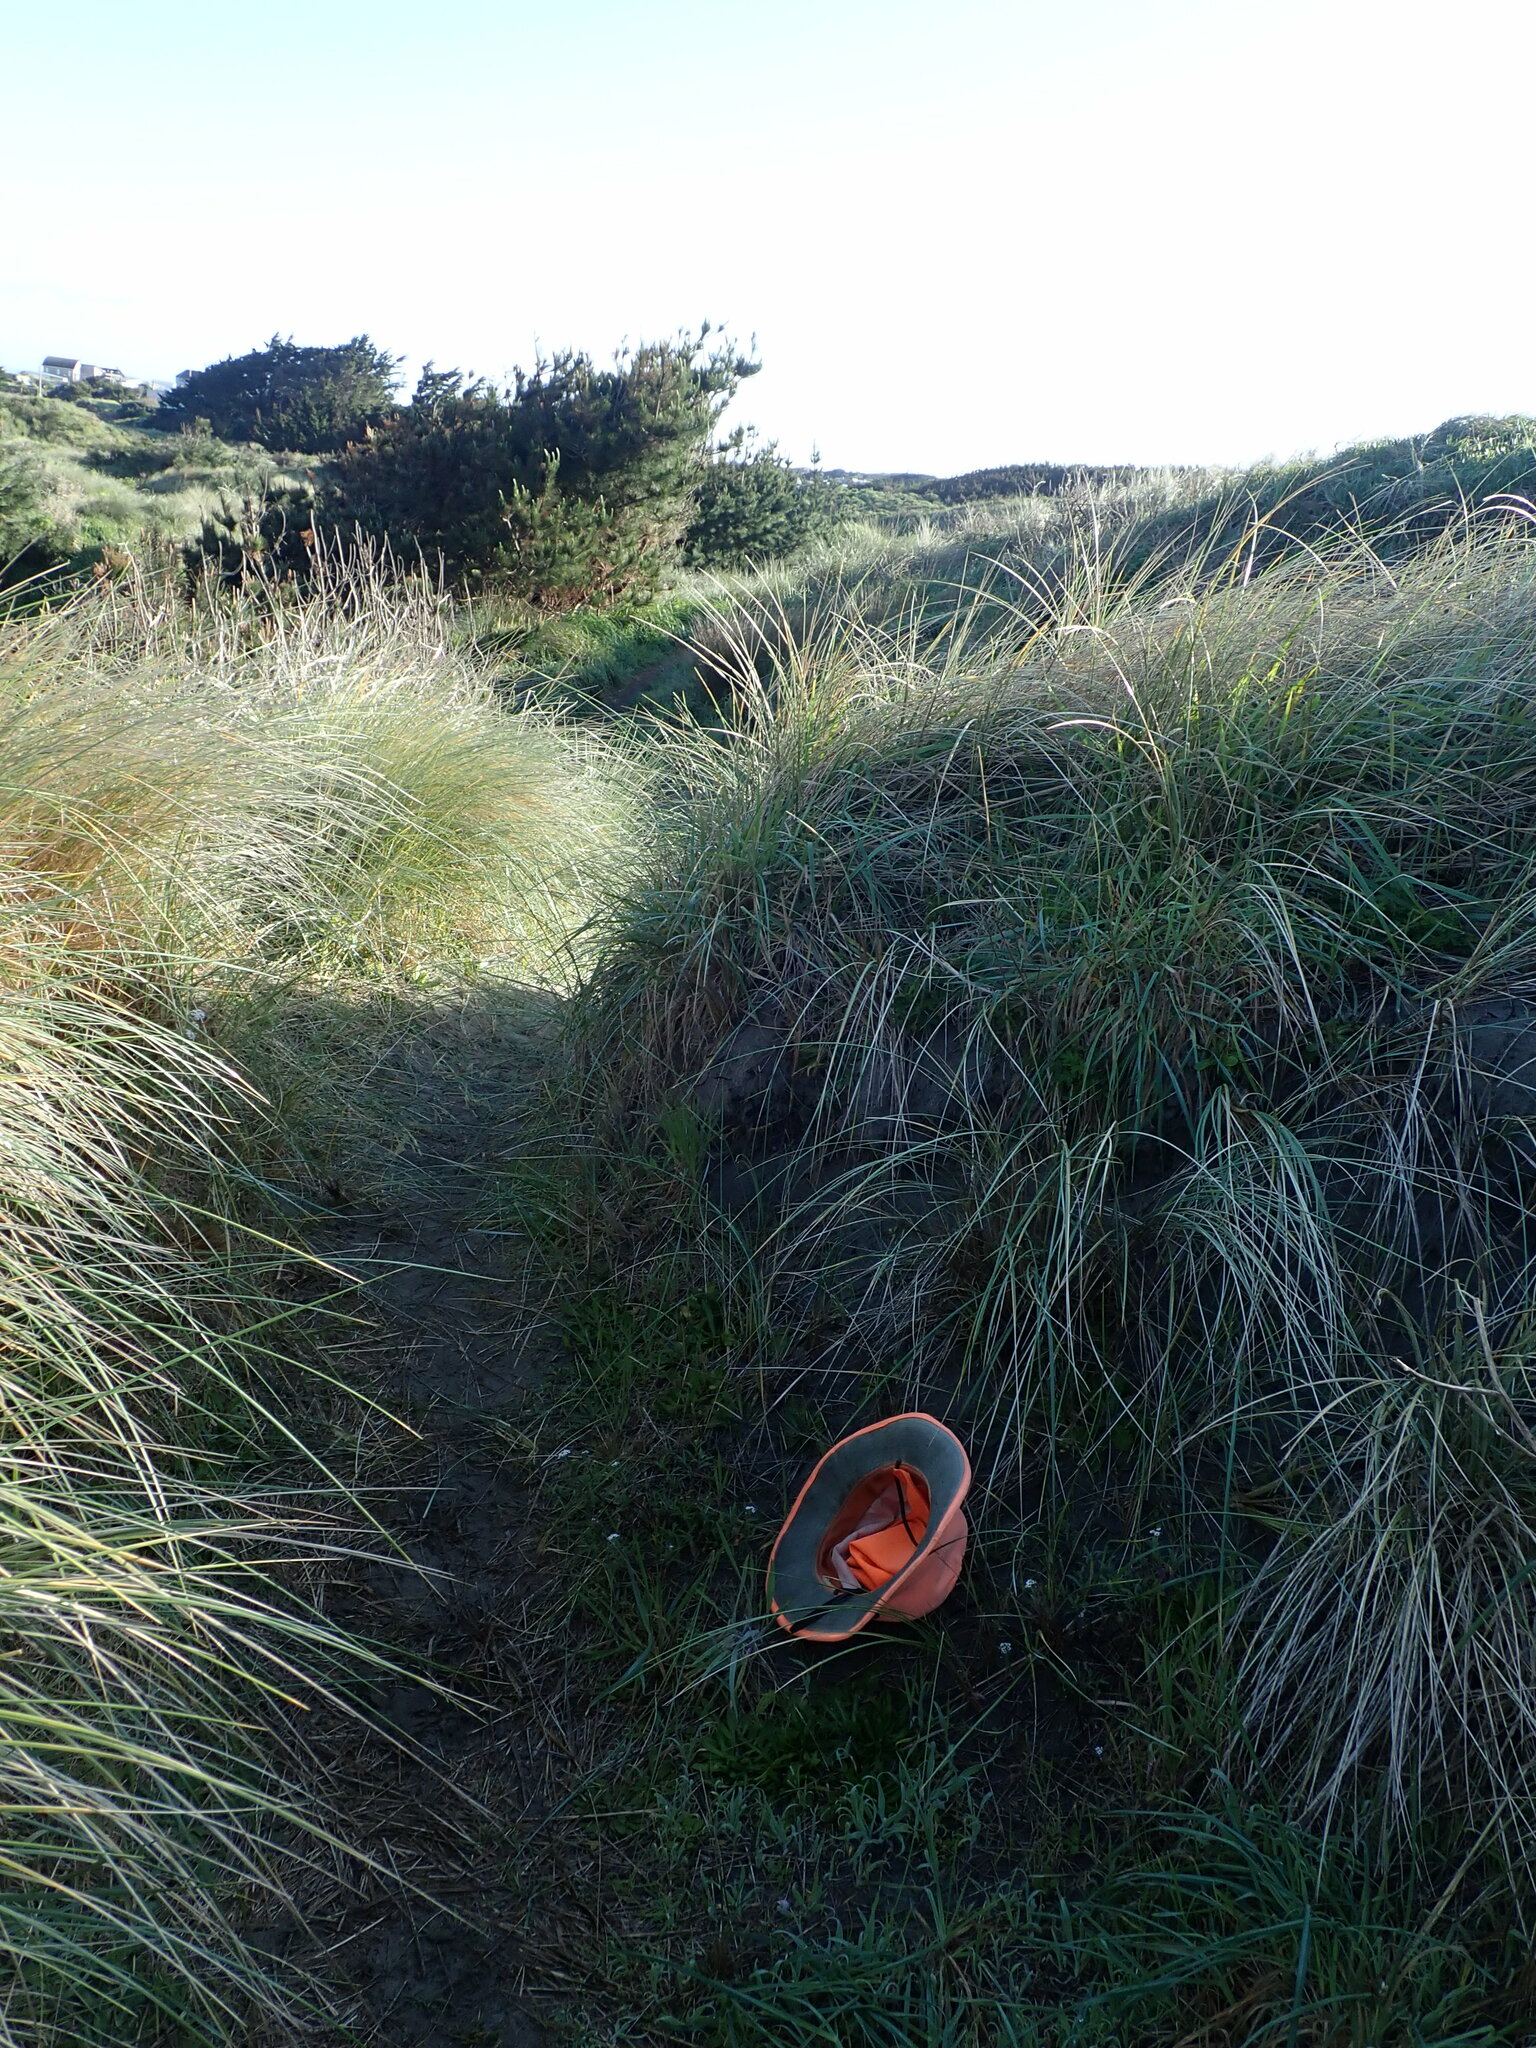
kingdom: Plantae
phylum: Tracheophyta
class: Magnoliopsida
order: Brassicales
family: Brassicaceae
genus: Lobularia
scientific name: Lobularia maritima
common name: Sweet alison
